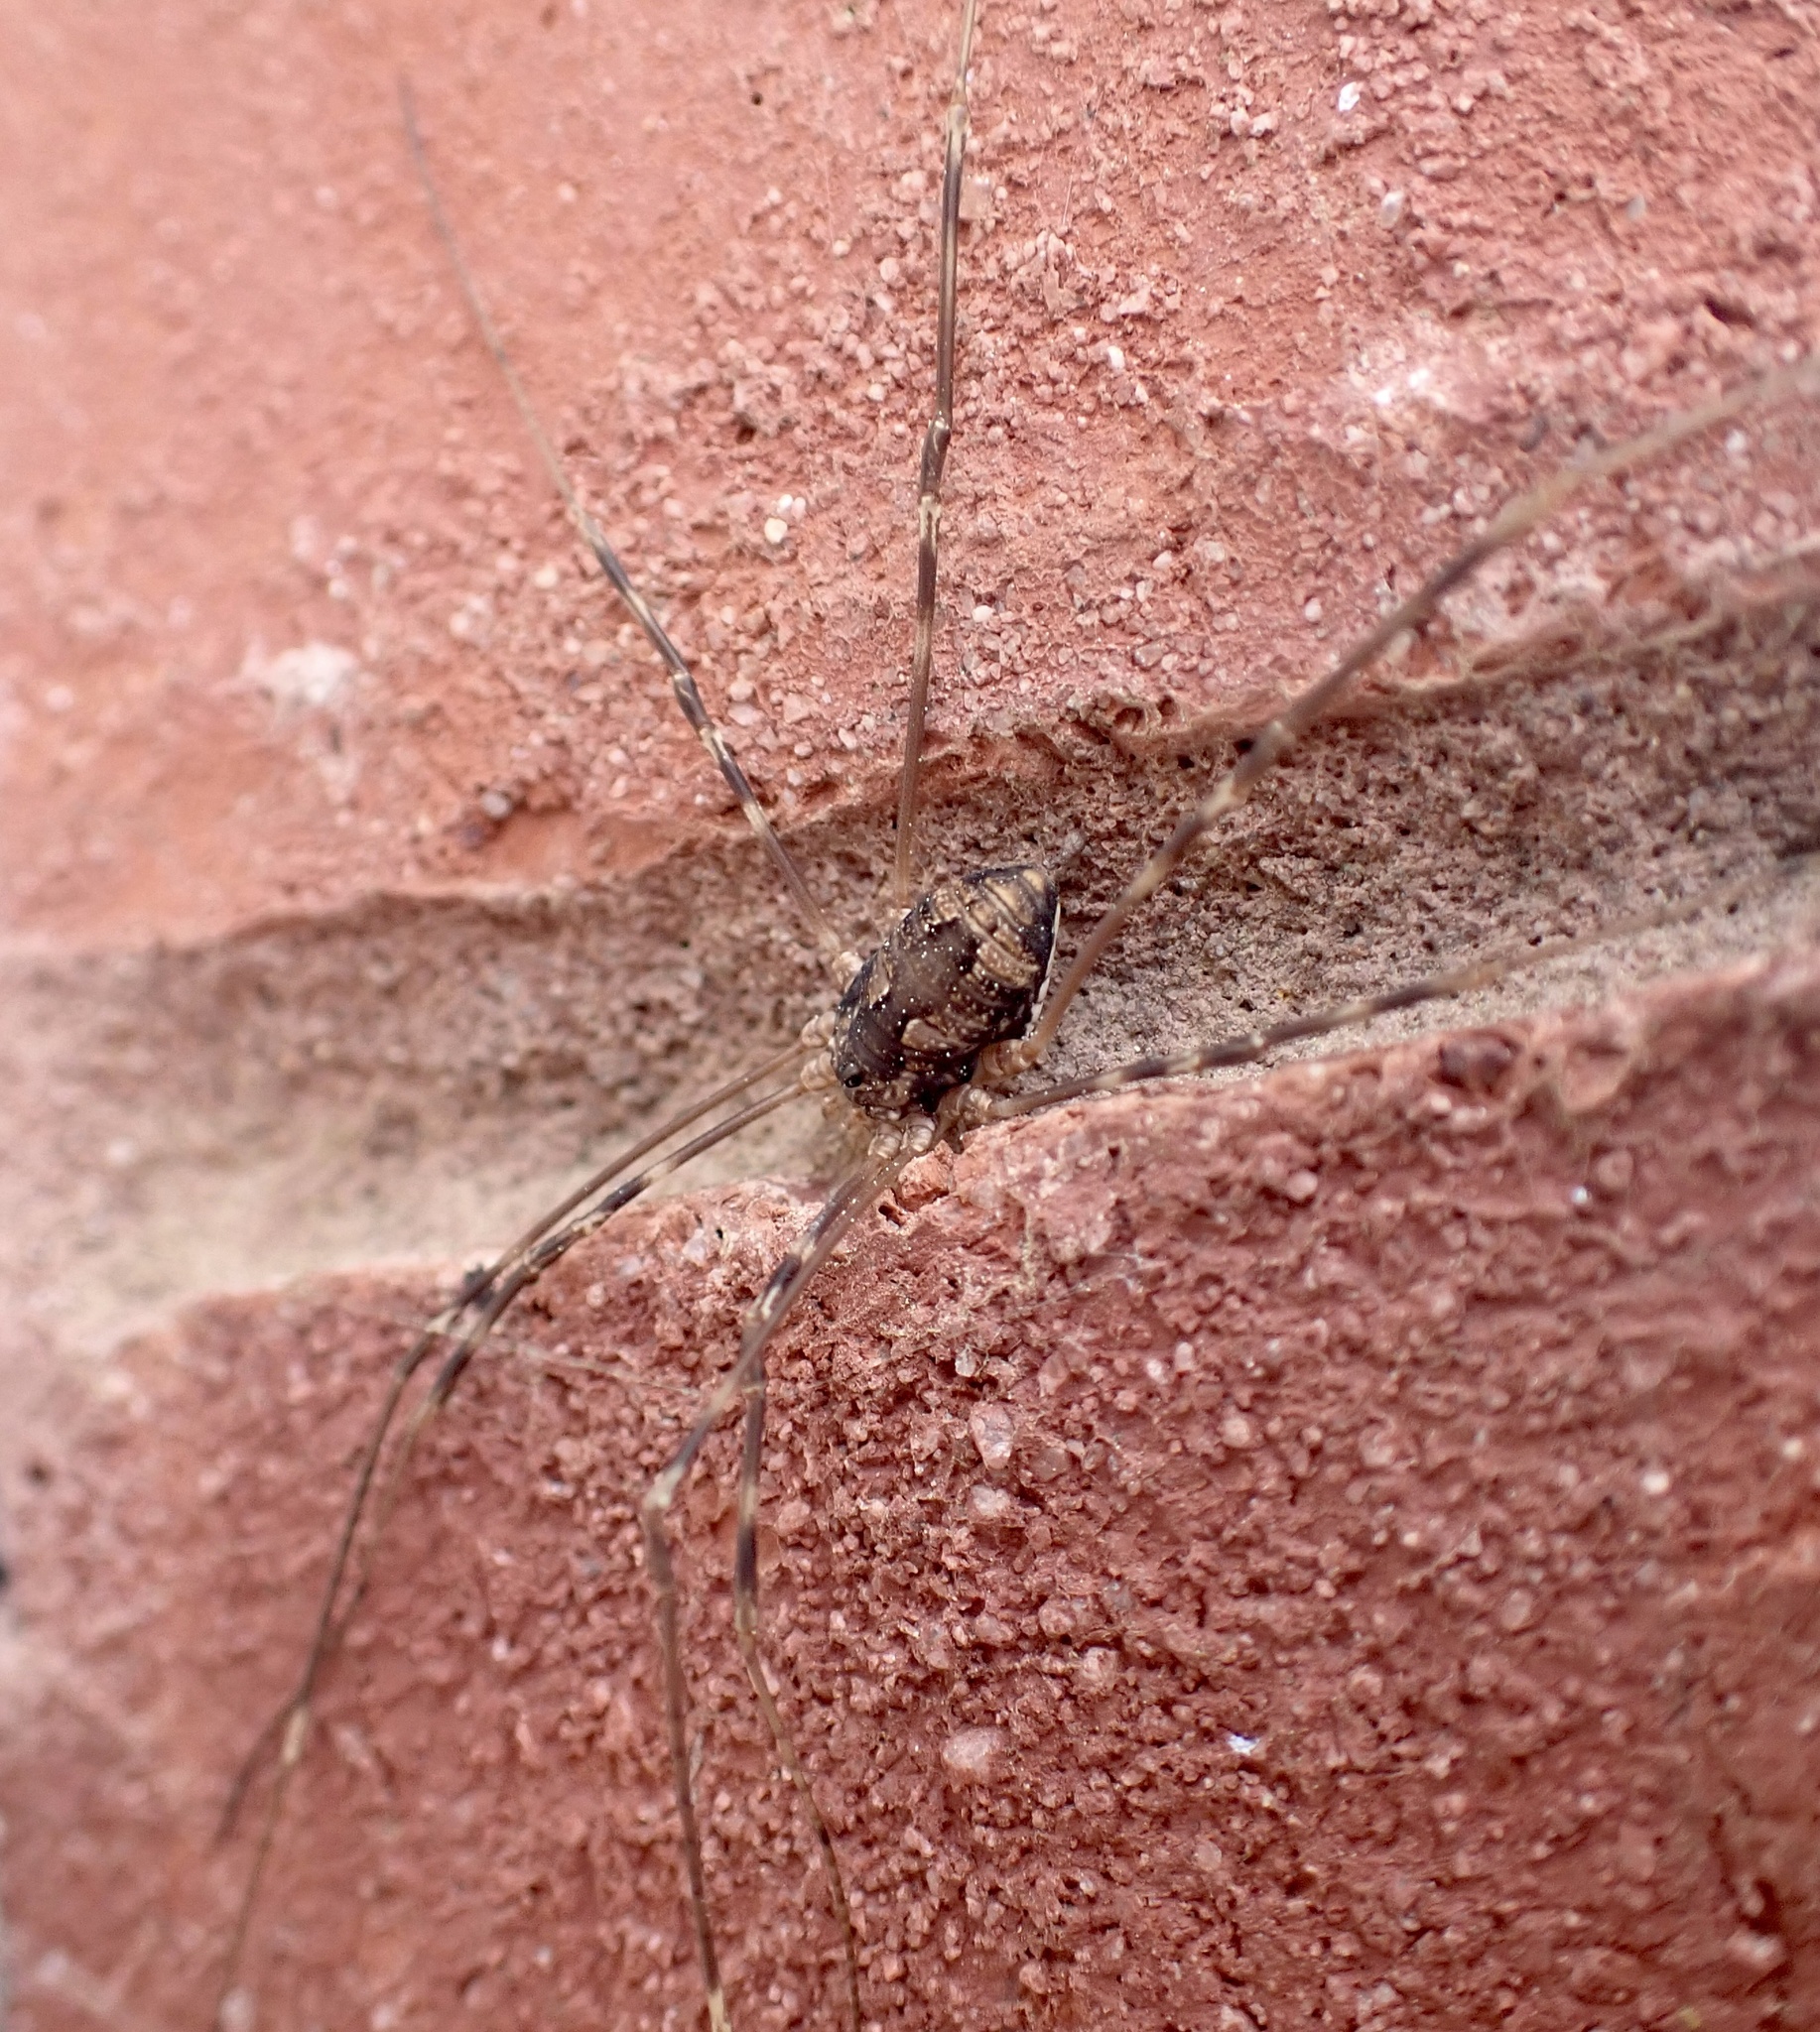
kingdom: Animalia
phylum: Arthropoda
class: Arachnida
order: Opiliones
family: Sclerosomatidae
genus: Leiobunum
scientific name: Leiobunum vittatum
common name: Eastern harvestman
